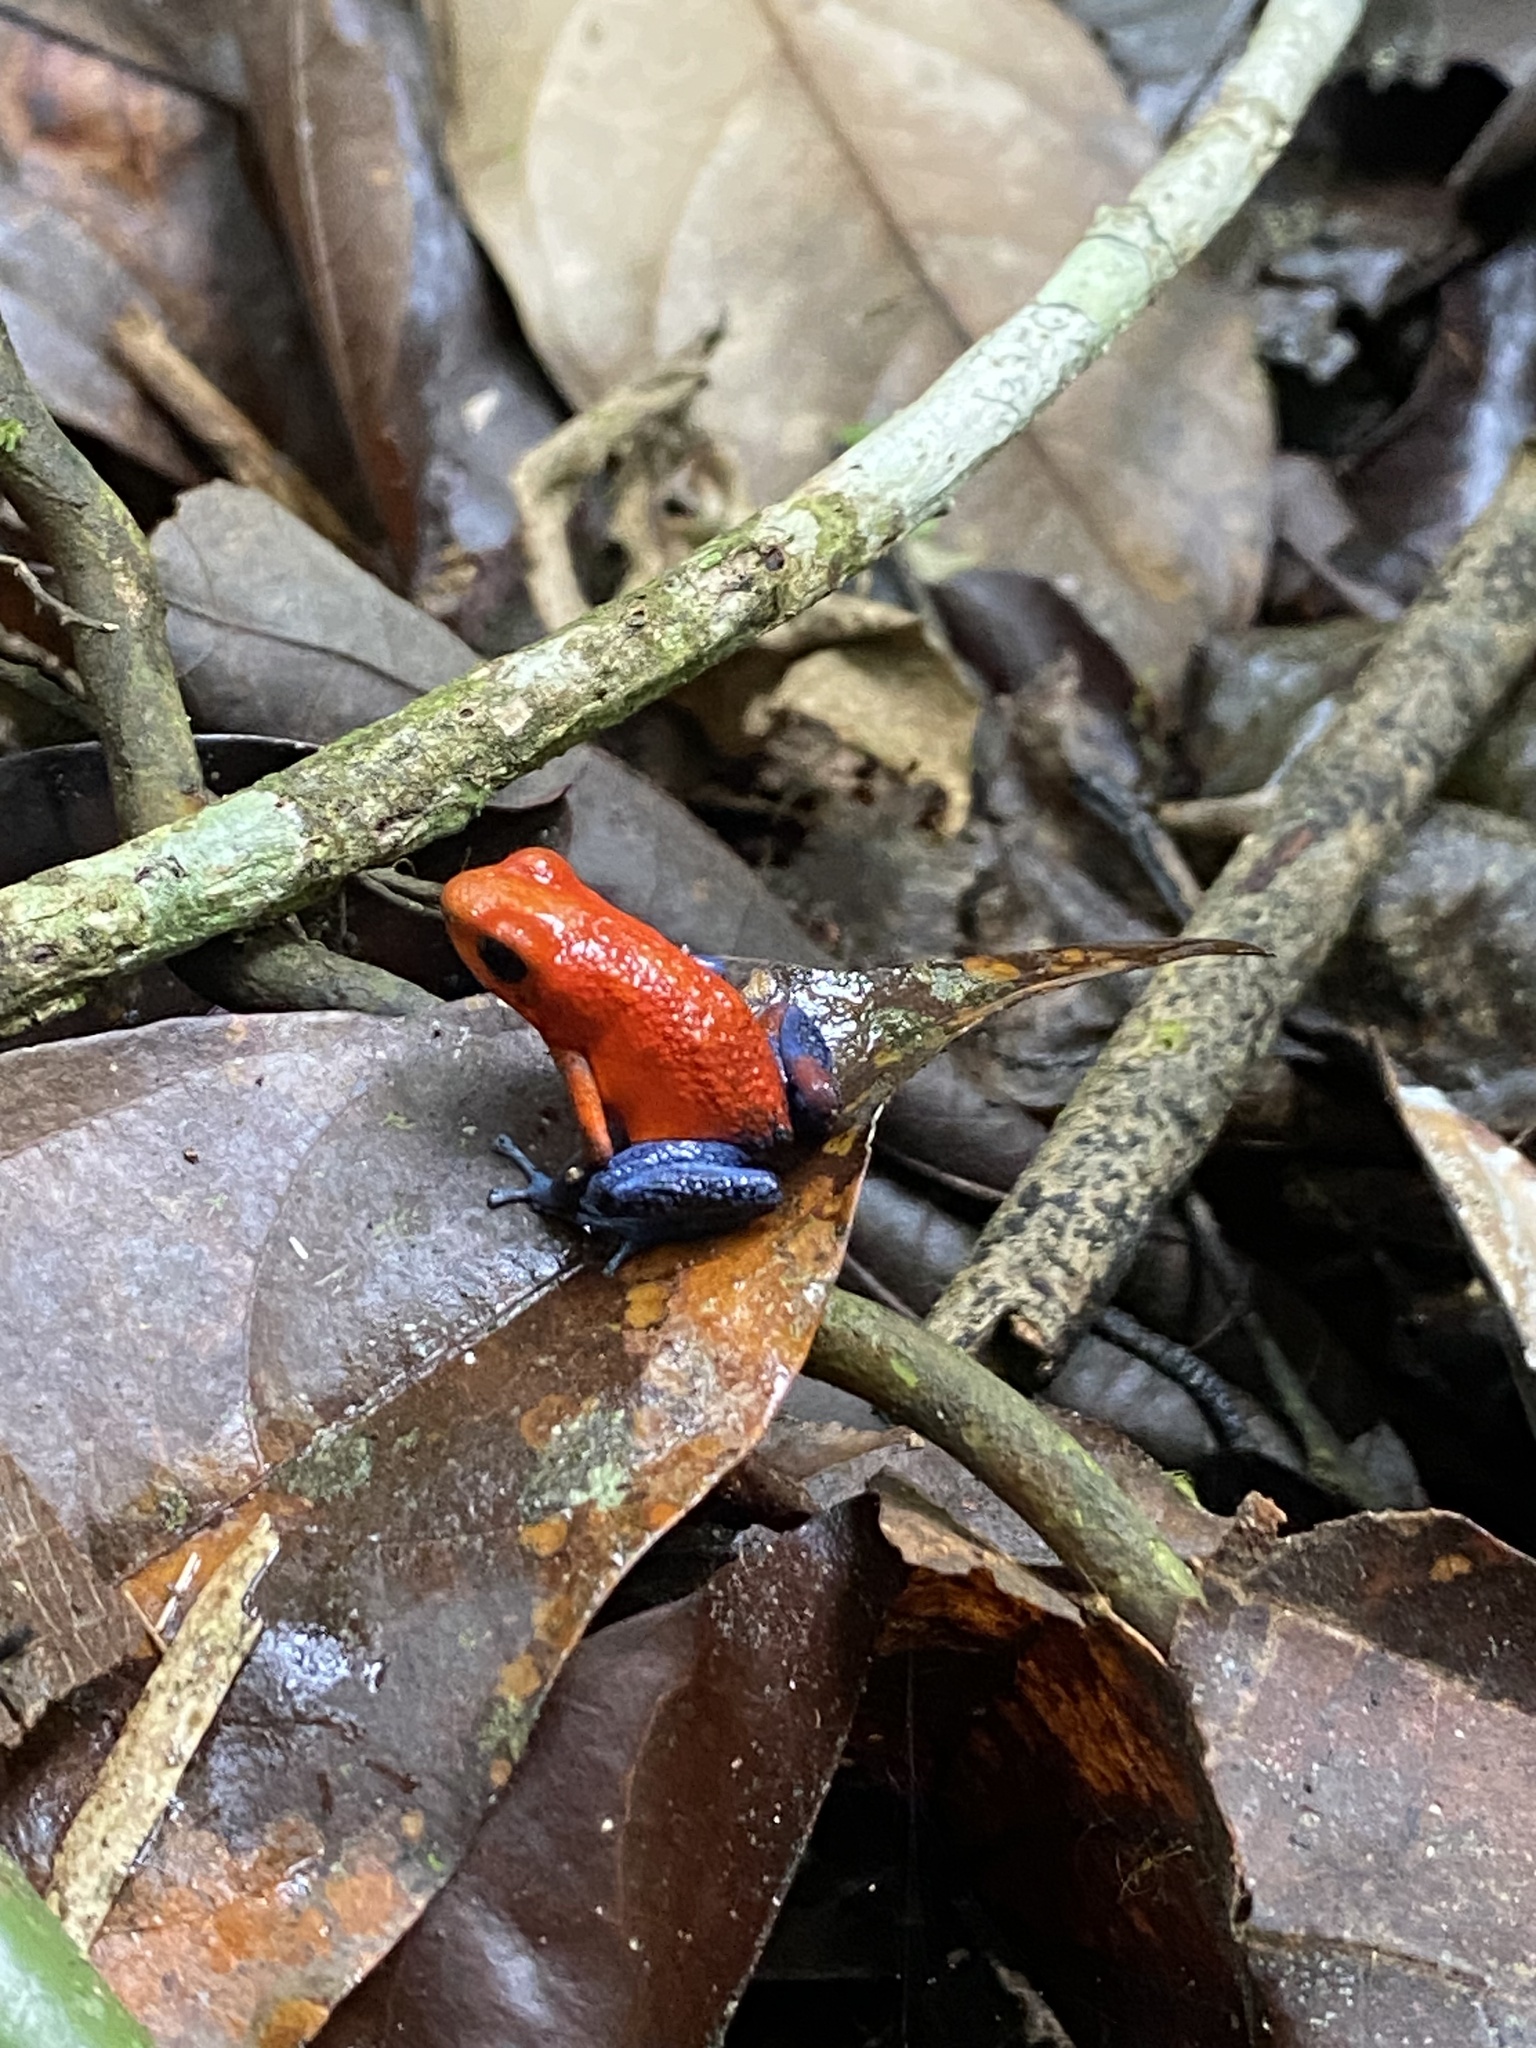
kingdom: Animalia
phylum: Chordata
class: Amphibia
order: Anura
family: Dendrobatidae
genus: Oophaga
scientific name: Oophaga pumilio
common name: Flaming poison frog
